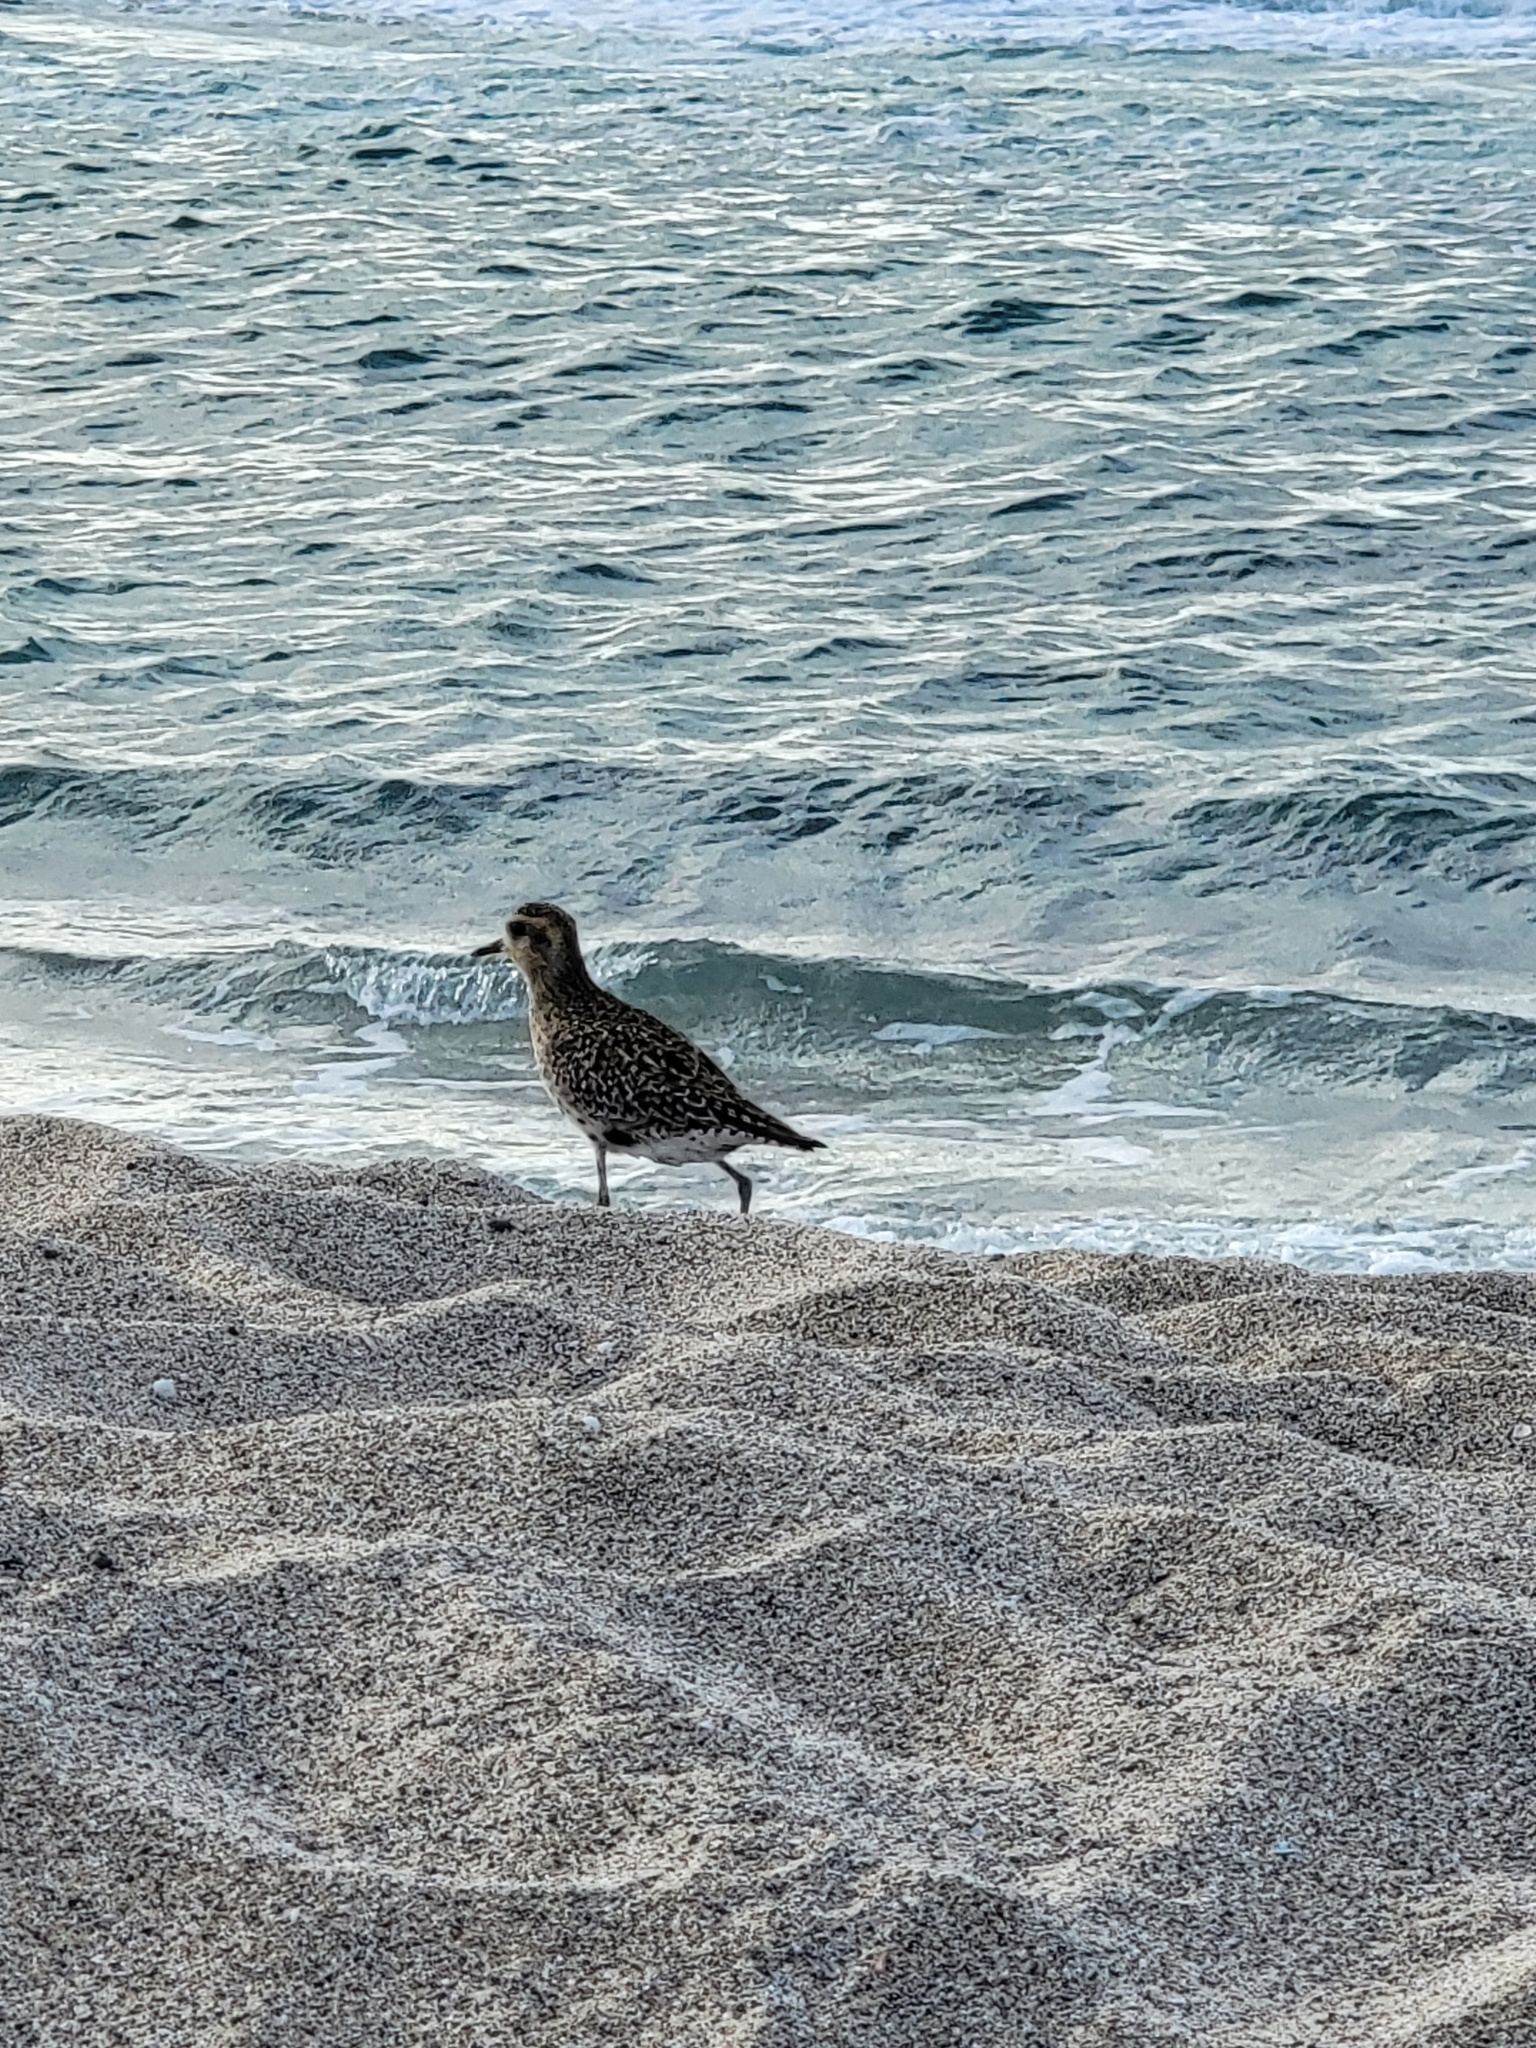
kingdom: Animalia
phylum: Chordata
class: Aves
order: Charadriiformes
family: Charadriidae
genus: Pluvialis
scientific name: Pluvialis fulva
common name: Pacific golden plover
